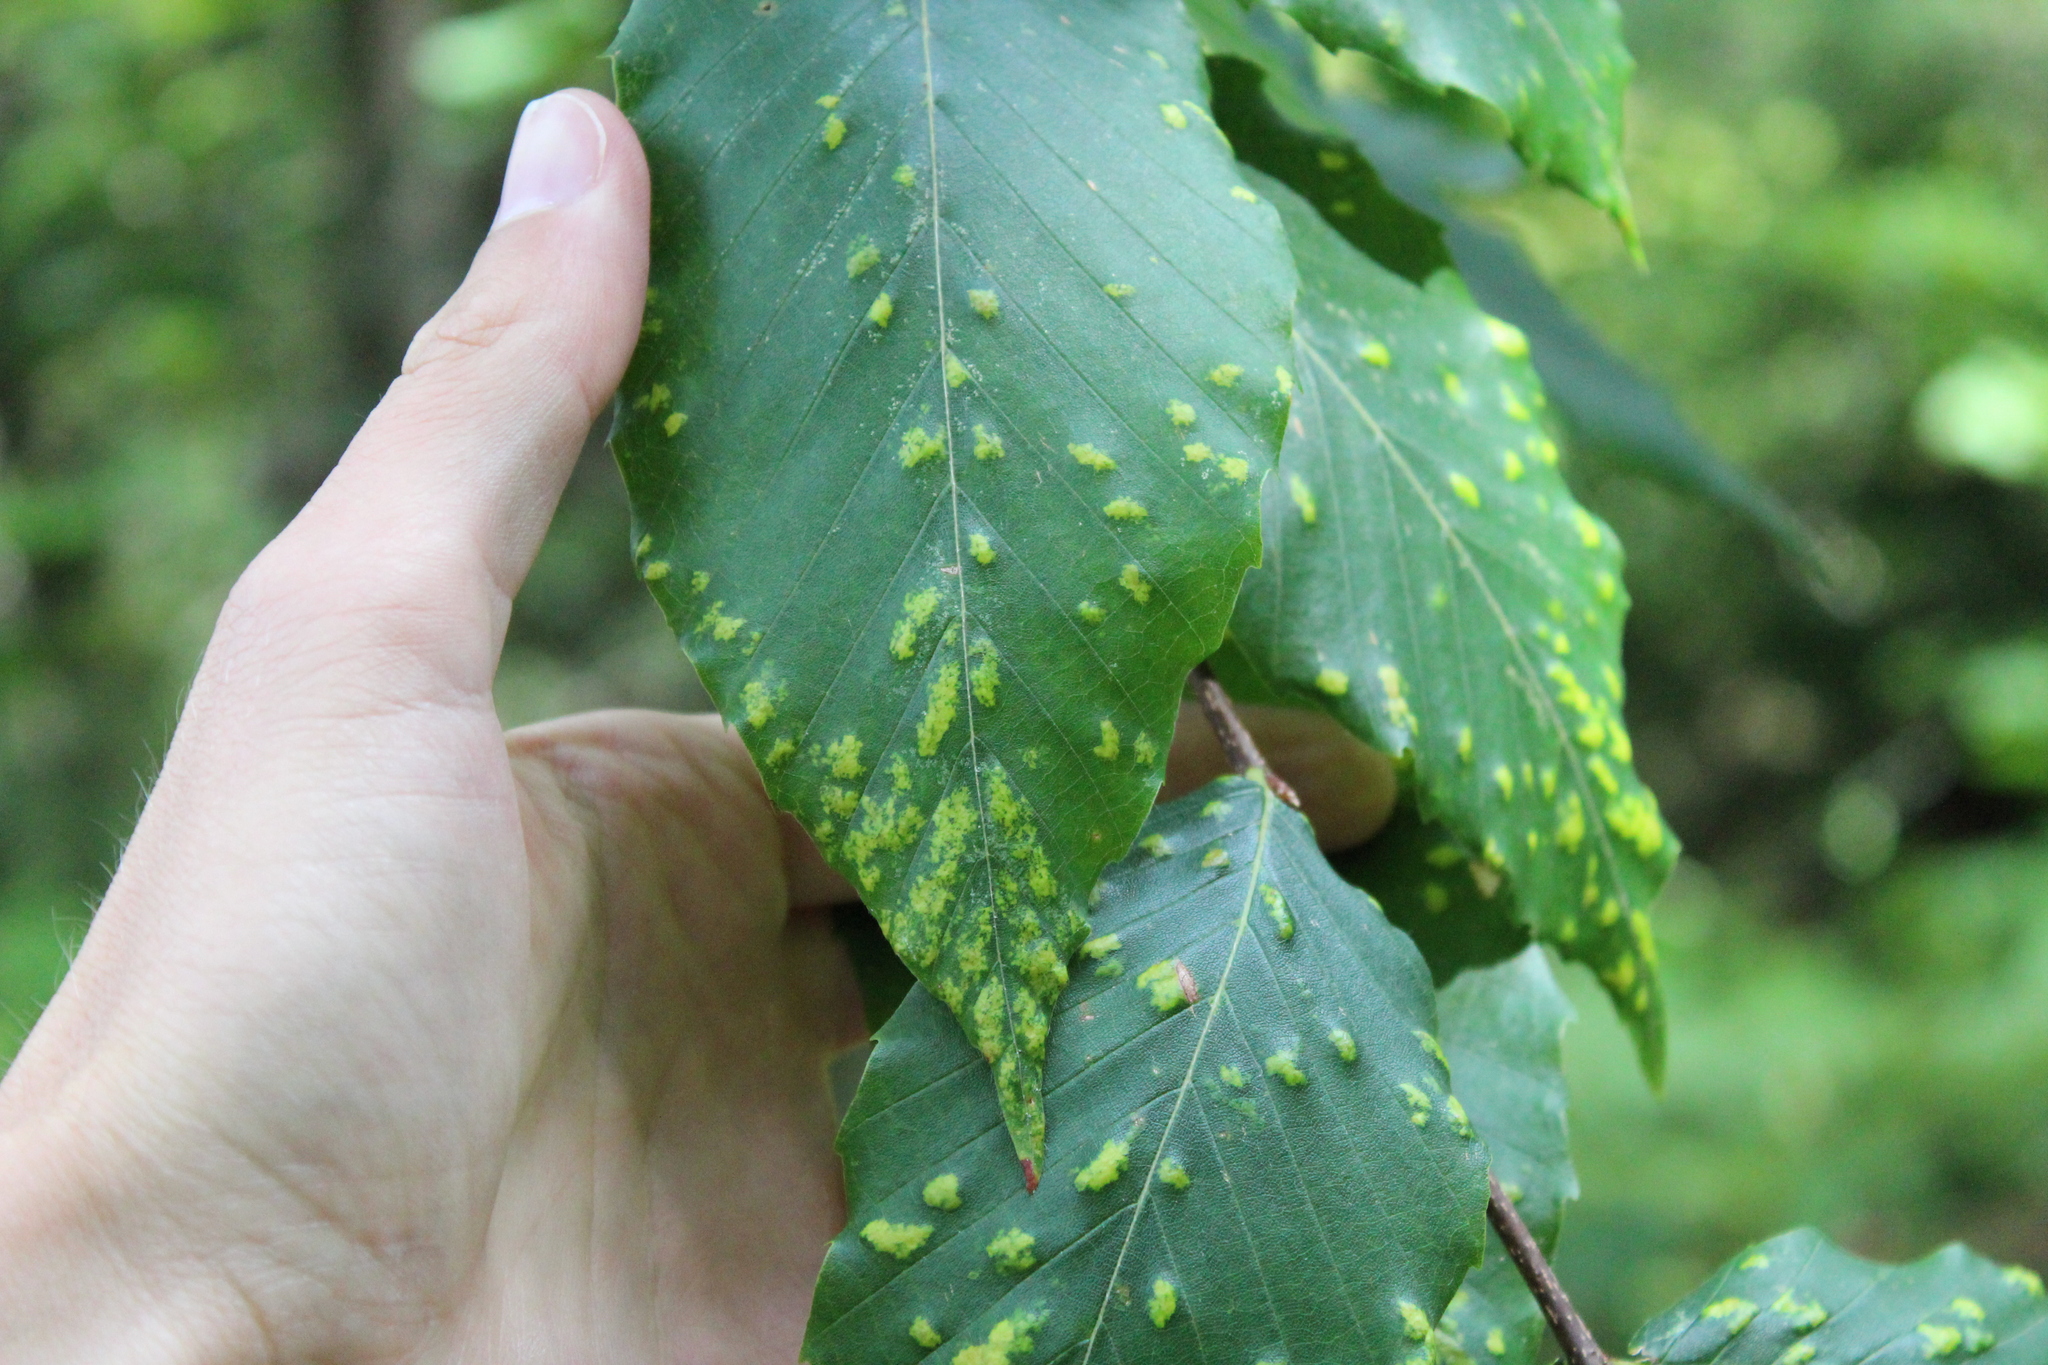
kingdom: Plantae
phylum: Tracheophyta
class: Magnoliopsida
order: Fagales
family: Fagaceae
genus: Fagus
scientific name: Fagus grandifolia
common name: American beech
